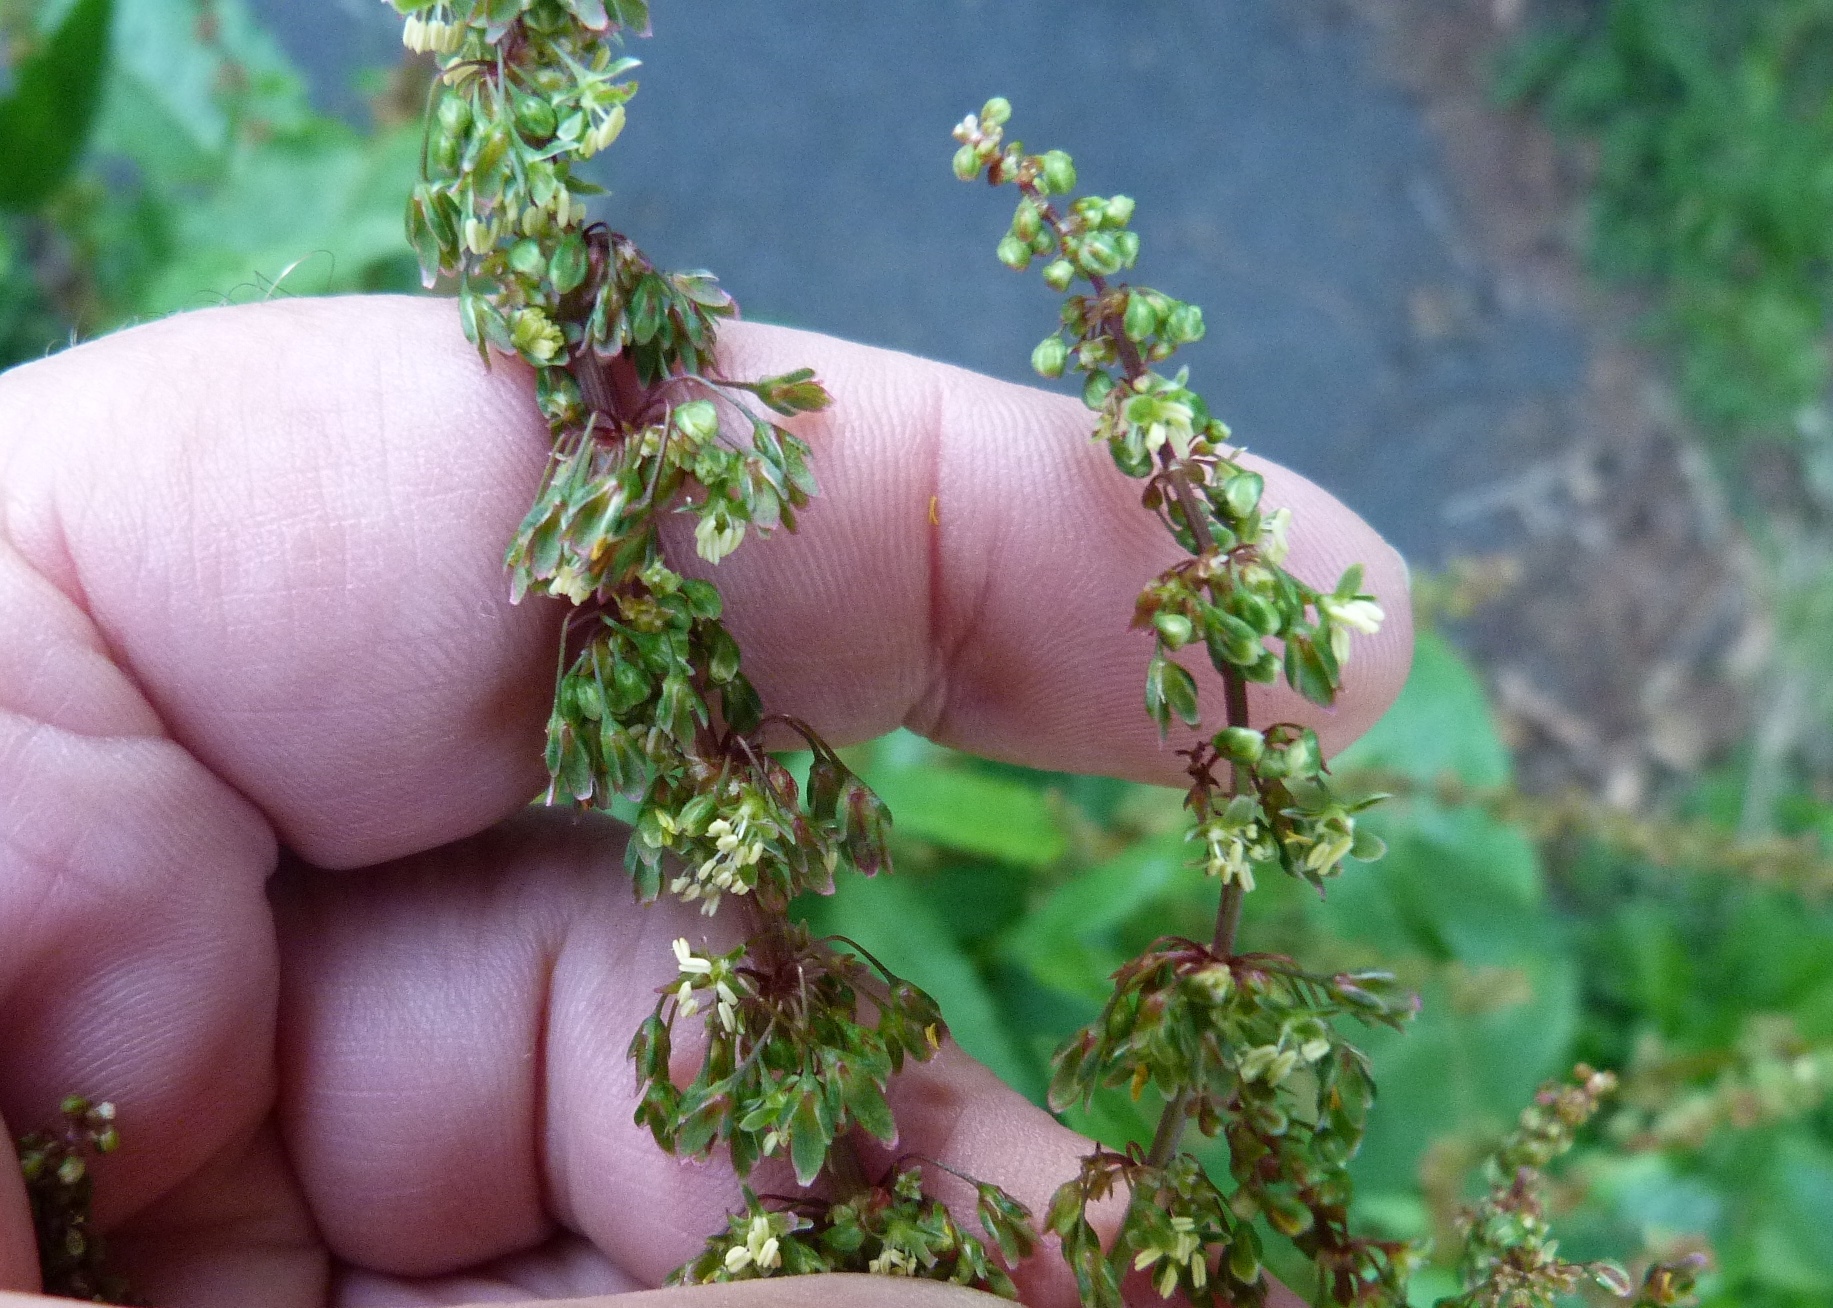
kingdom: Plantae
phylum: Tracheophyta
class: Magnoliopsida
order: Caryophyllales
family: Polygonaceae
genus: Rumex
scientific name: Rumex obtusifolius
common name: Bitter dock
